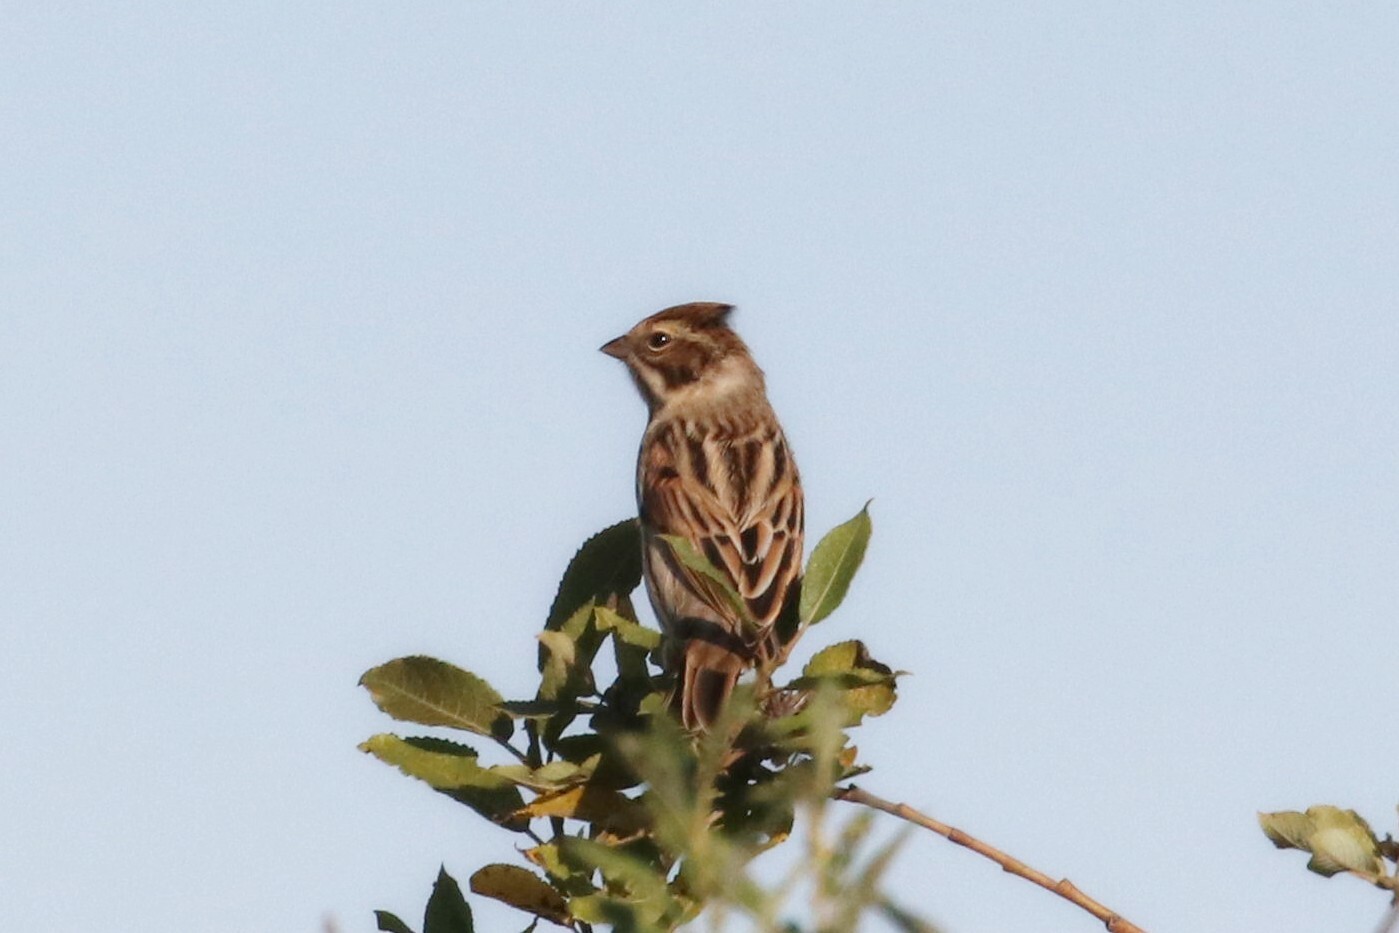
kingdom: Animalia
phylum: Chordata
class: Aves
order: Passeriformes
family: Emberizidae
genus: Emberiza
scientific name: Emberiza schoeniclus
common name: Reed bunting
